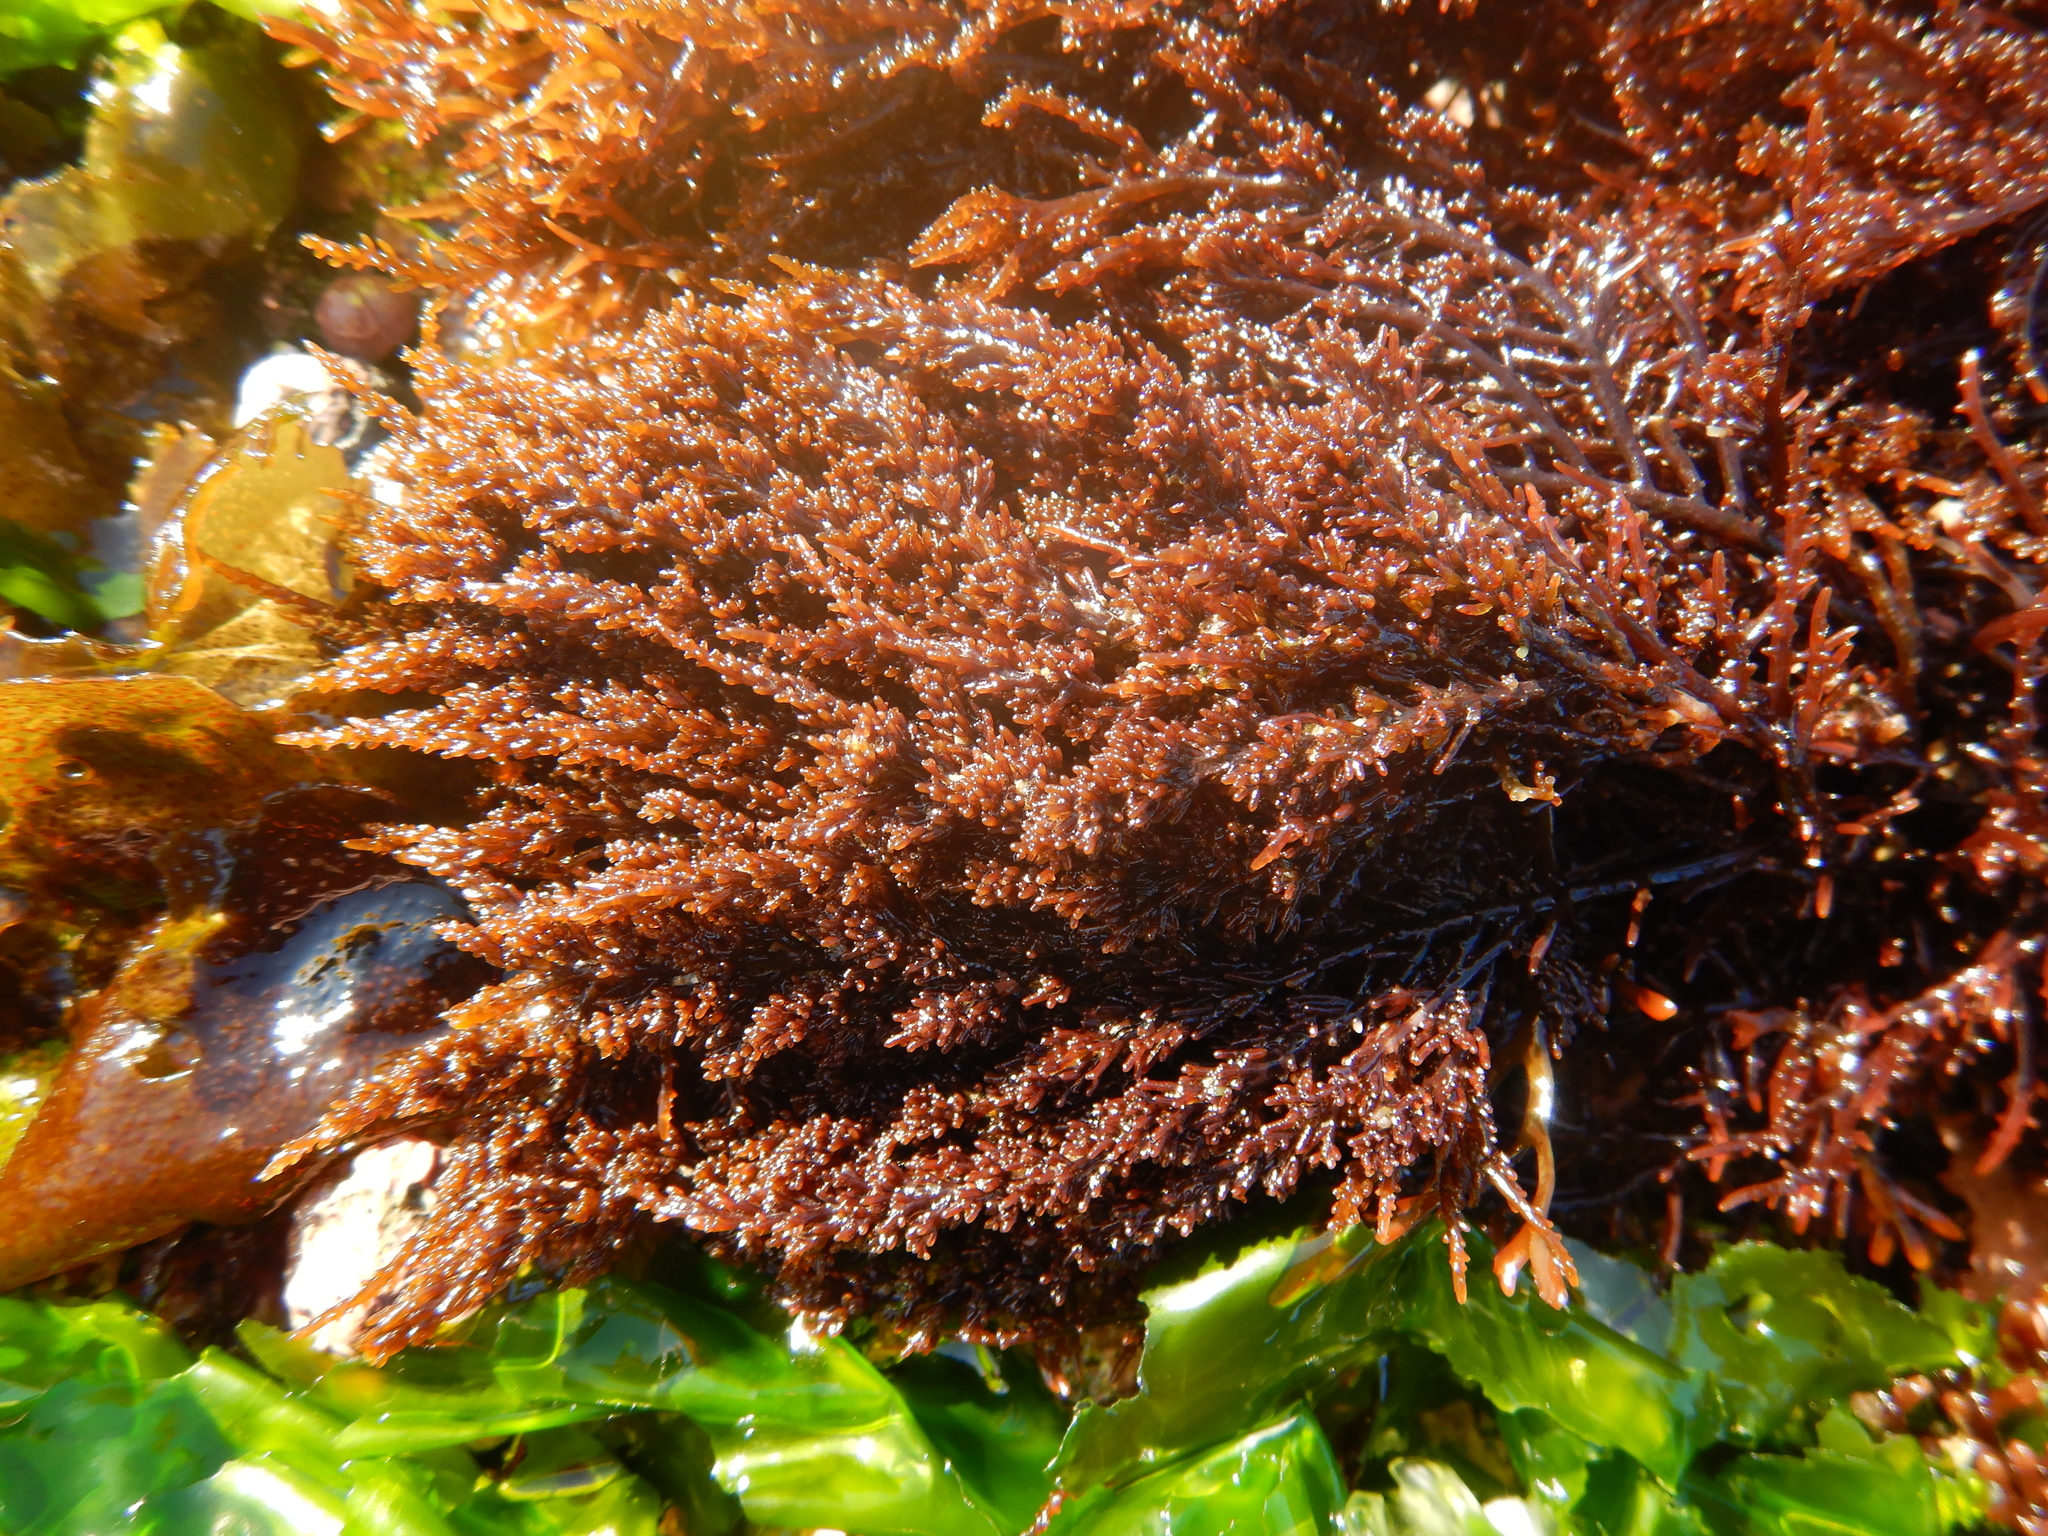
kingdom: Plantae
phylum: Rhodophyta
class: Florideophyceae
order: Ceramiales
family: Rhodomelaceae
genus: Chondria
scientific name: Chondria
